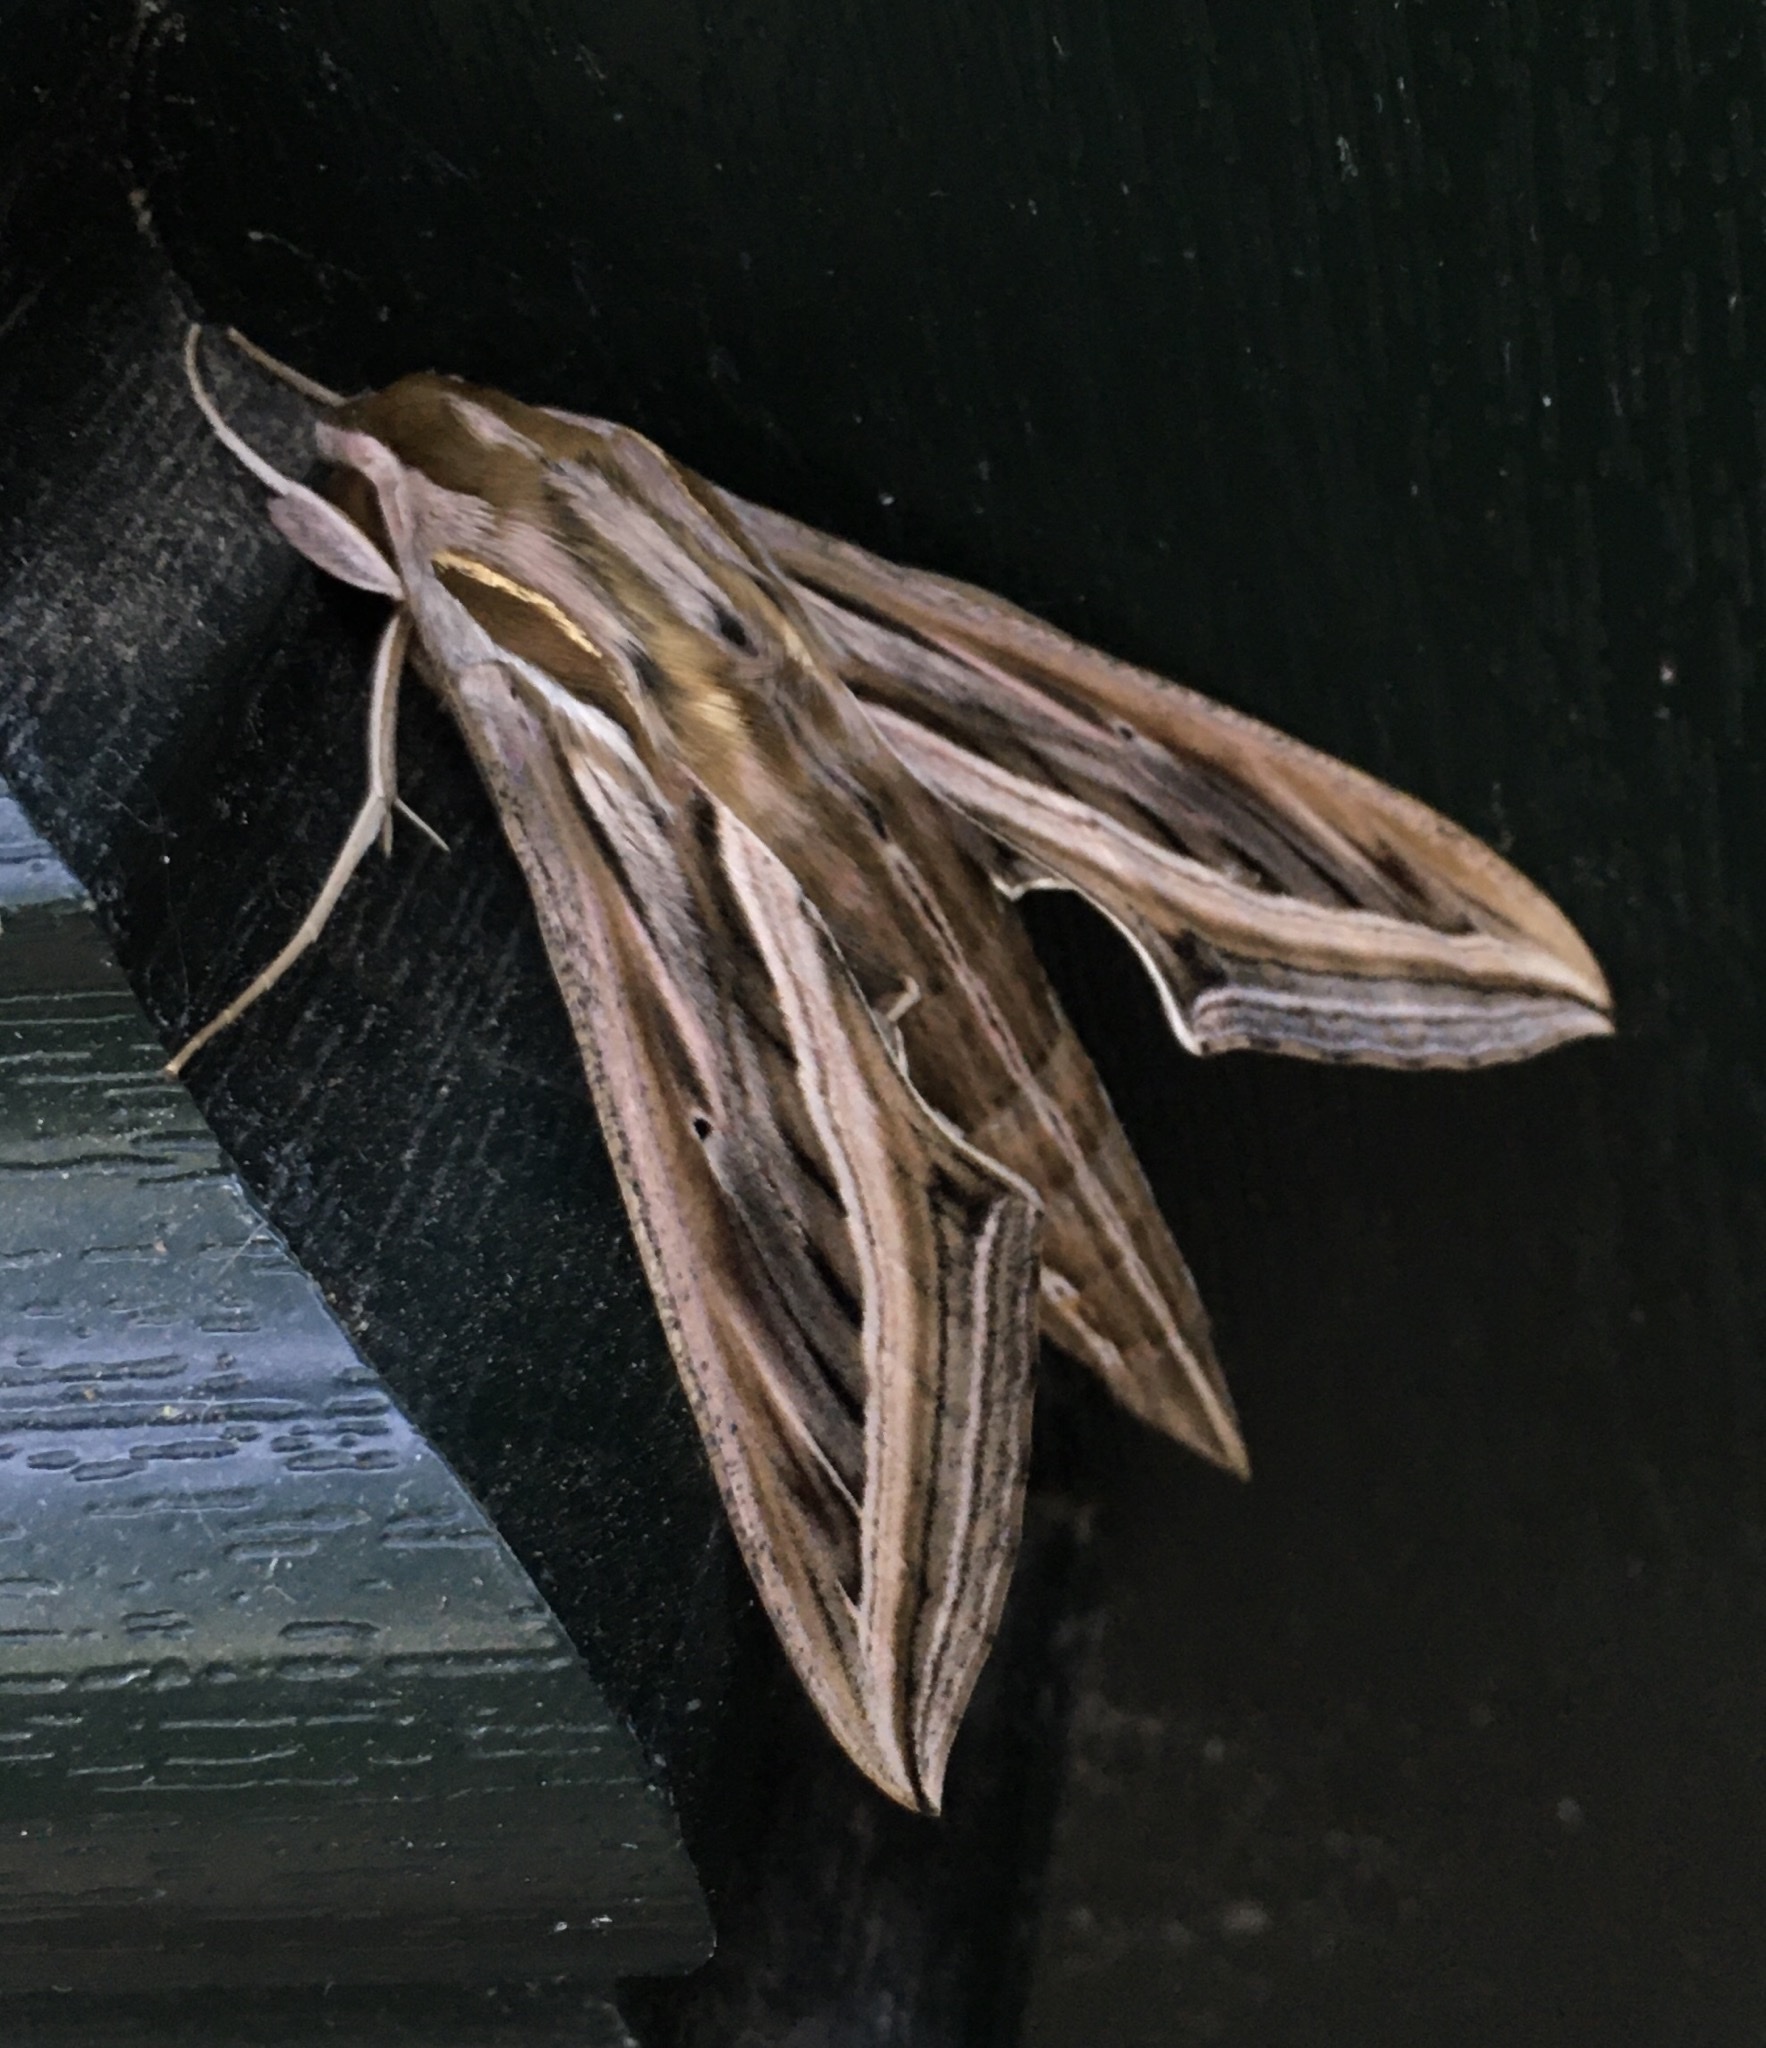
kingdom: Animalia
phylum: Arthropoda
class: Insecta
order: Lepidoptera
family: Sphingidae
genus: Hippotion
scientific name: Hippotion celerio
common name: Silver-striped hawk-moth
